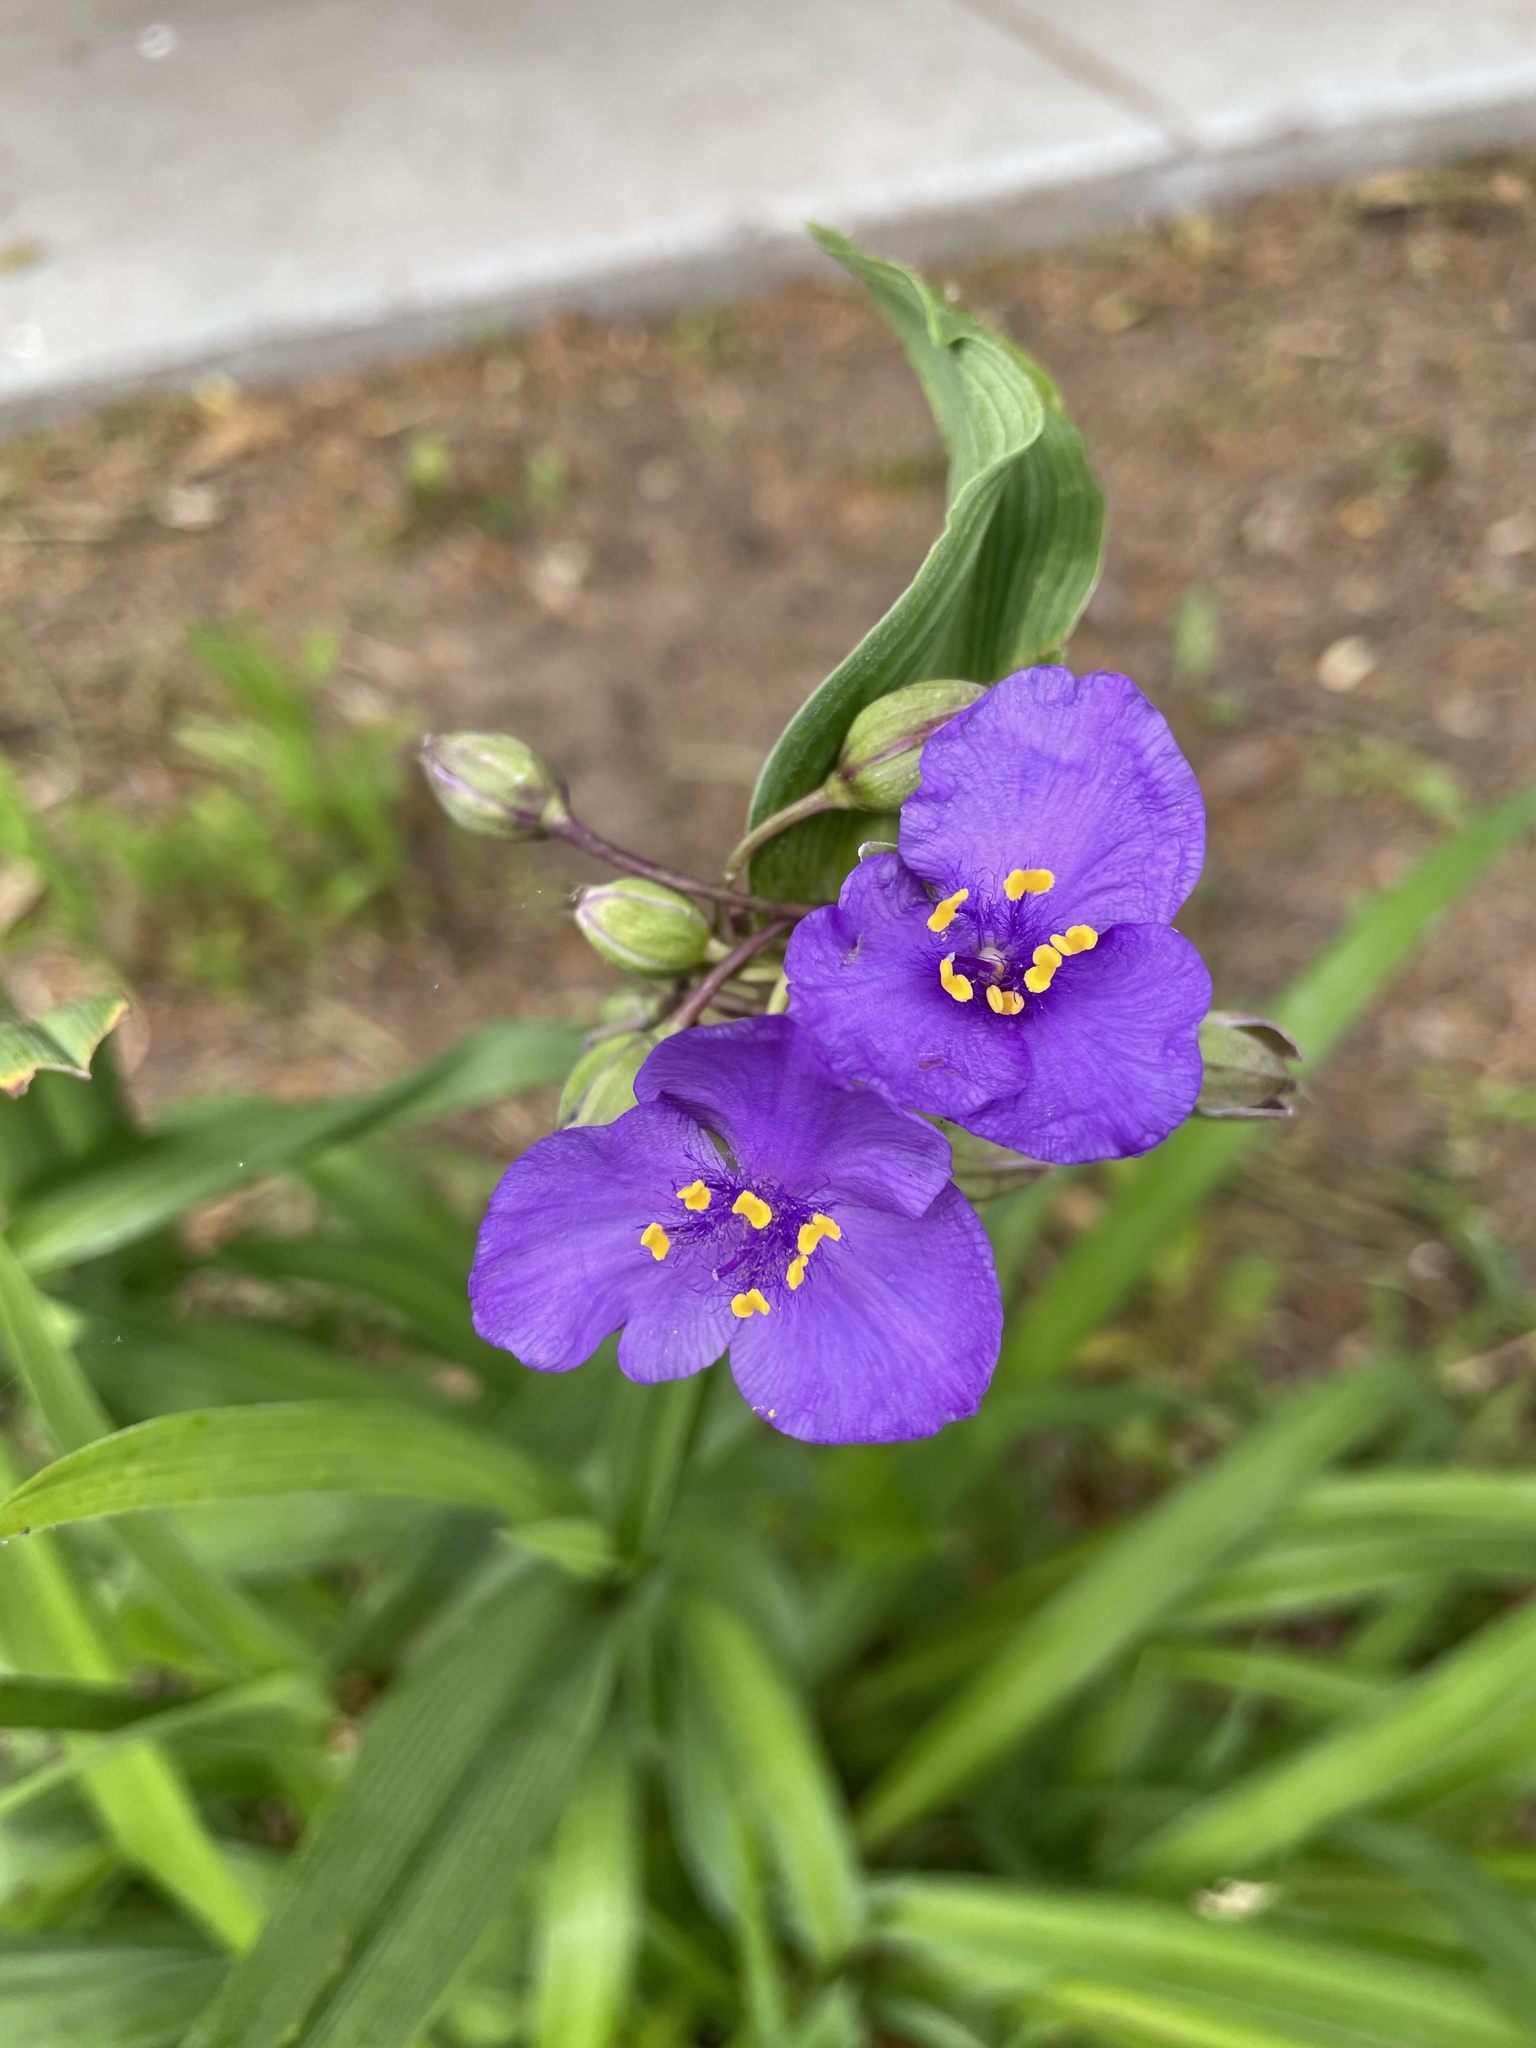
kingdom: Plantae
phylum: Tracheophyta
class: Liliopsida
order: Commelinales
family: Commelinaceae
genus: Tradescantia
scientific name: Tradescantia virginiana
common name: Spiderwort
